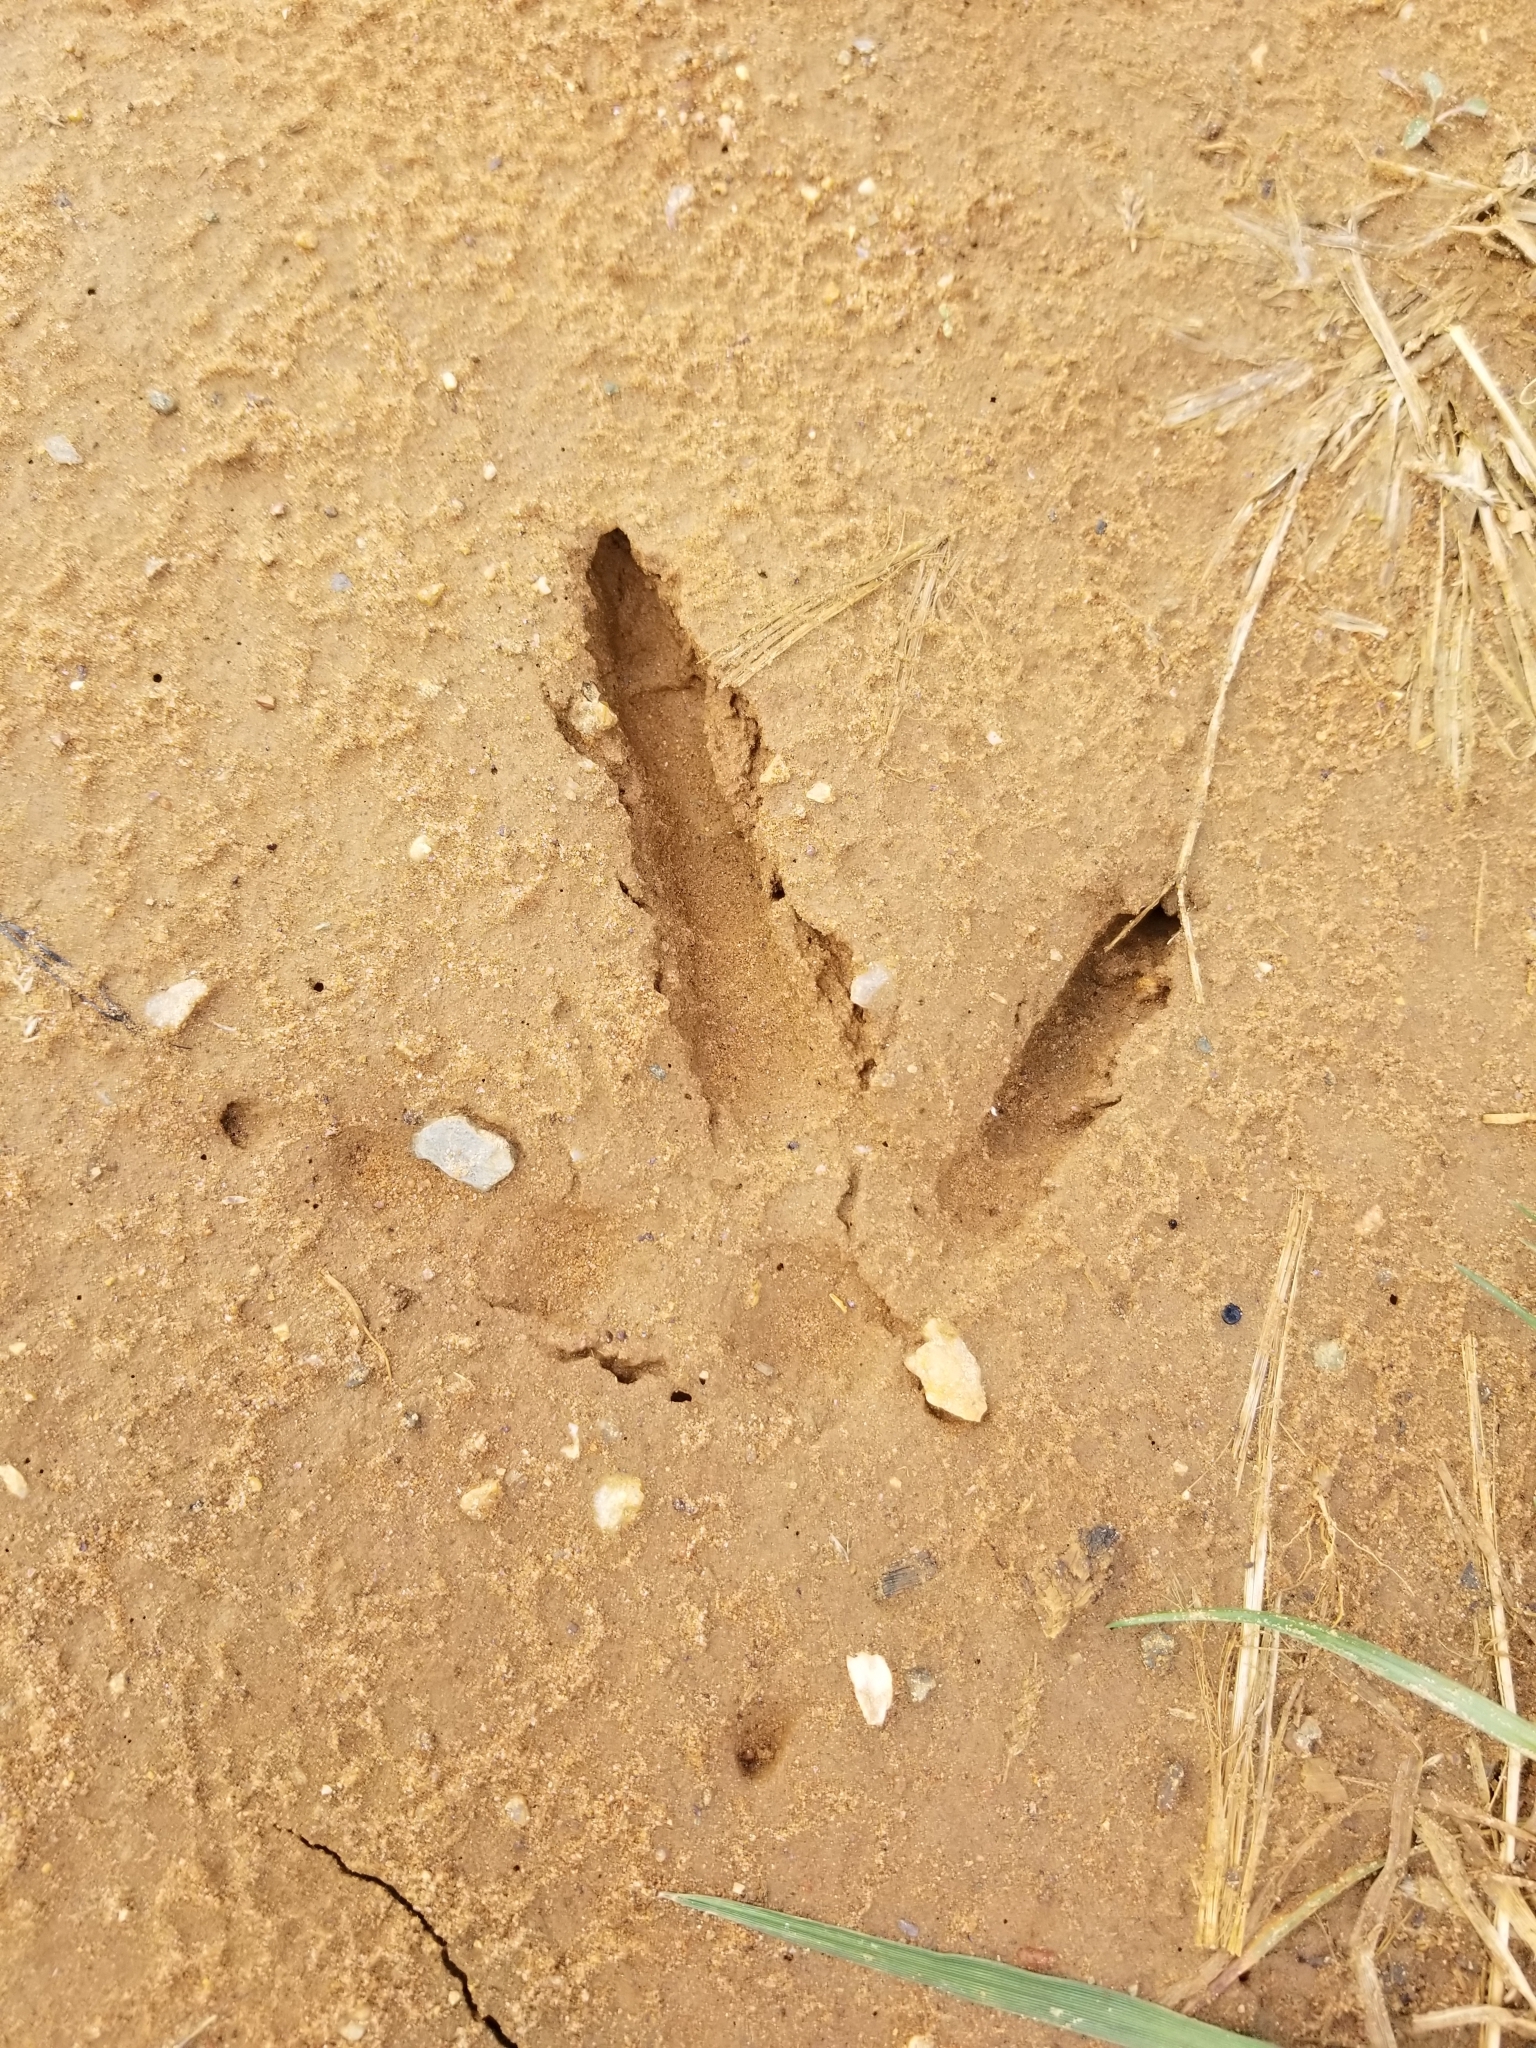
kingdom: Animalia
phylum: Chordata
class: Aves
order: Galliformes
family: Phasianidae
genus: Meleagris
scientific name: Meleagris gallopavo
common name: Wild turkey
